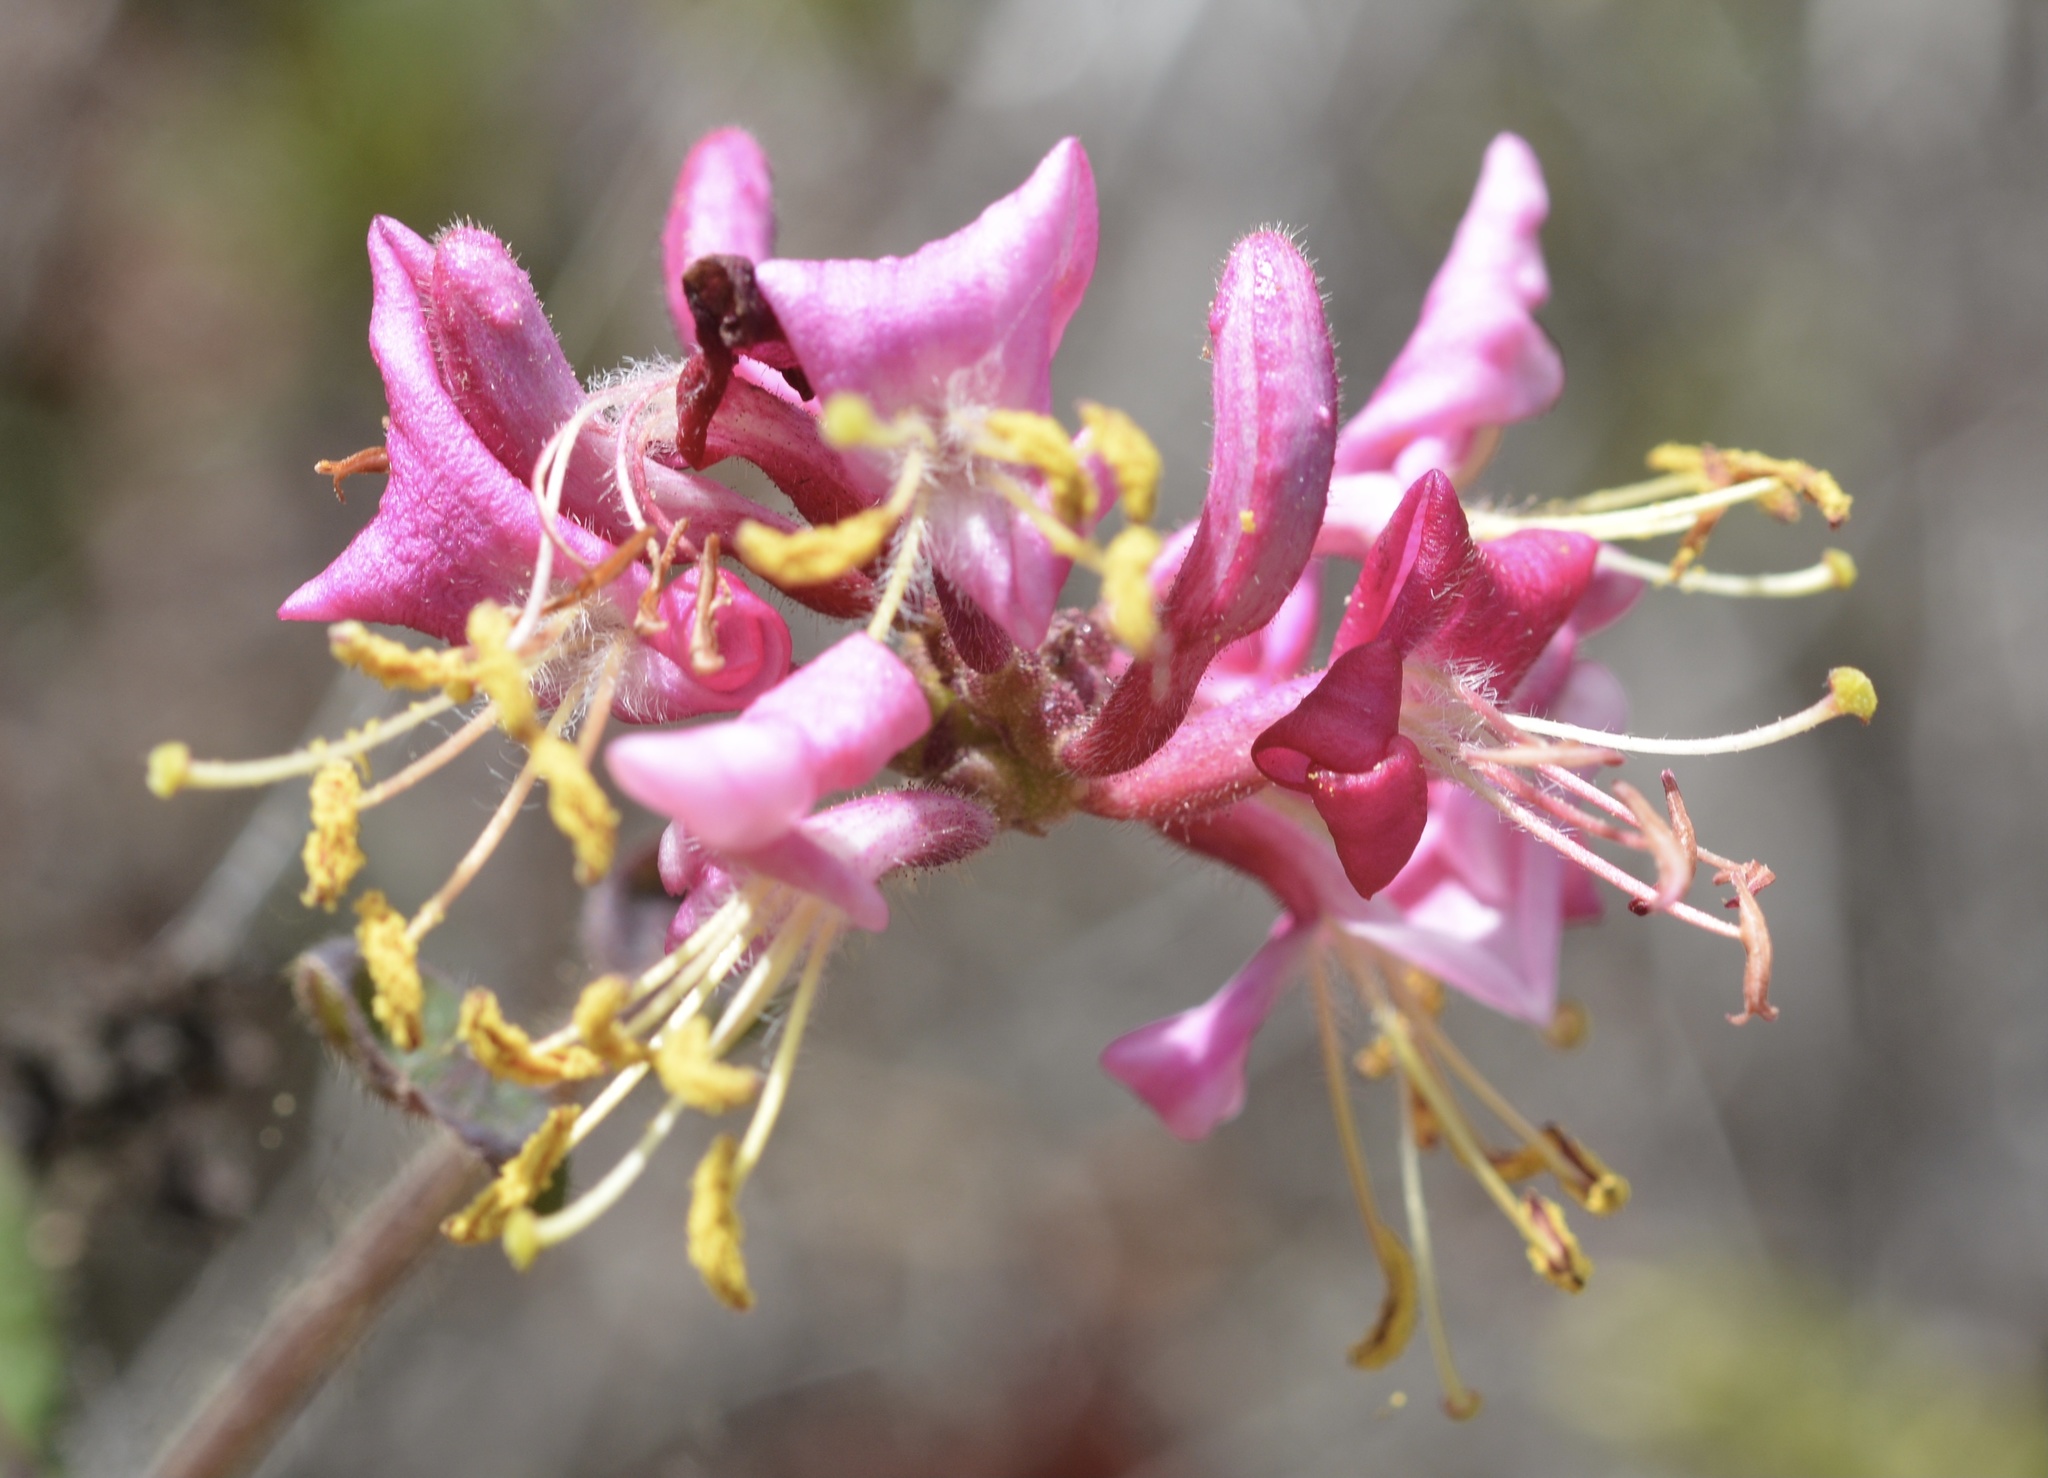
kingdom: Plantae
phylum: Tracheophyta
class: Magnoliopsida
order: Dipsacales
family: Caprifoliaceae
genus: Lonicera
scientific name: Lonicera hispidula
